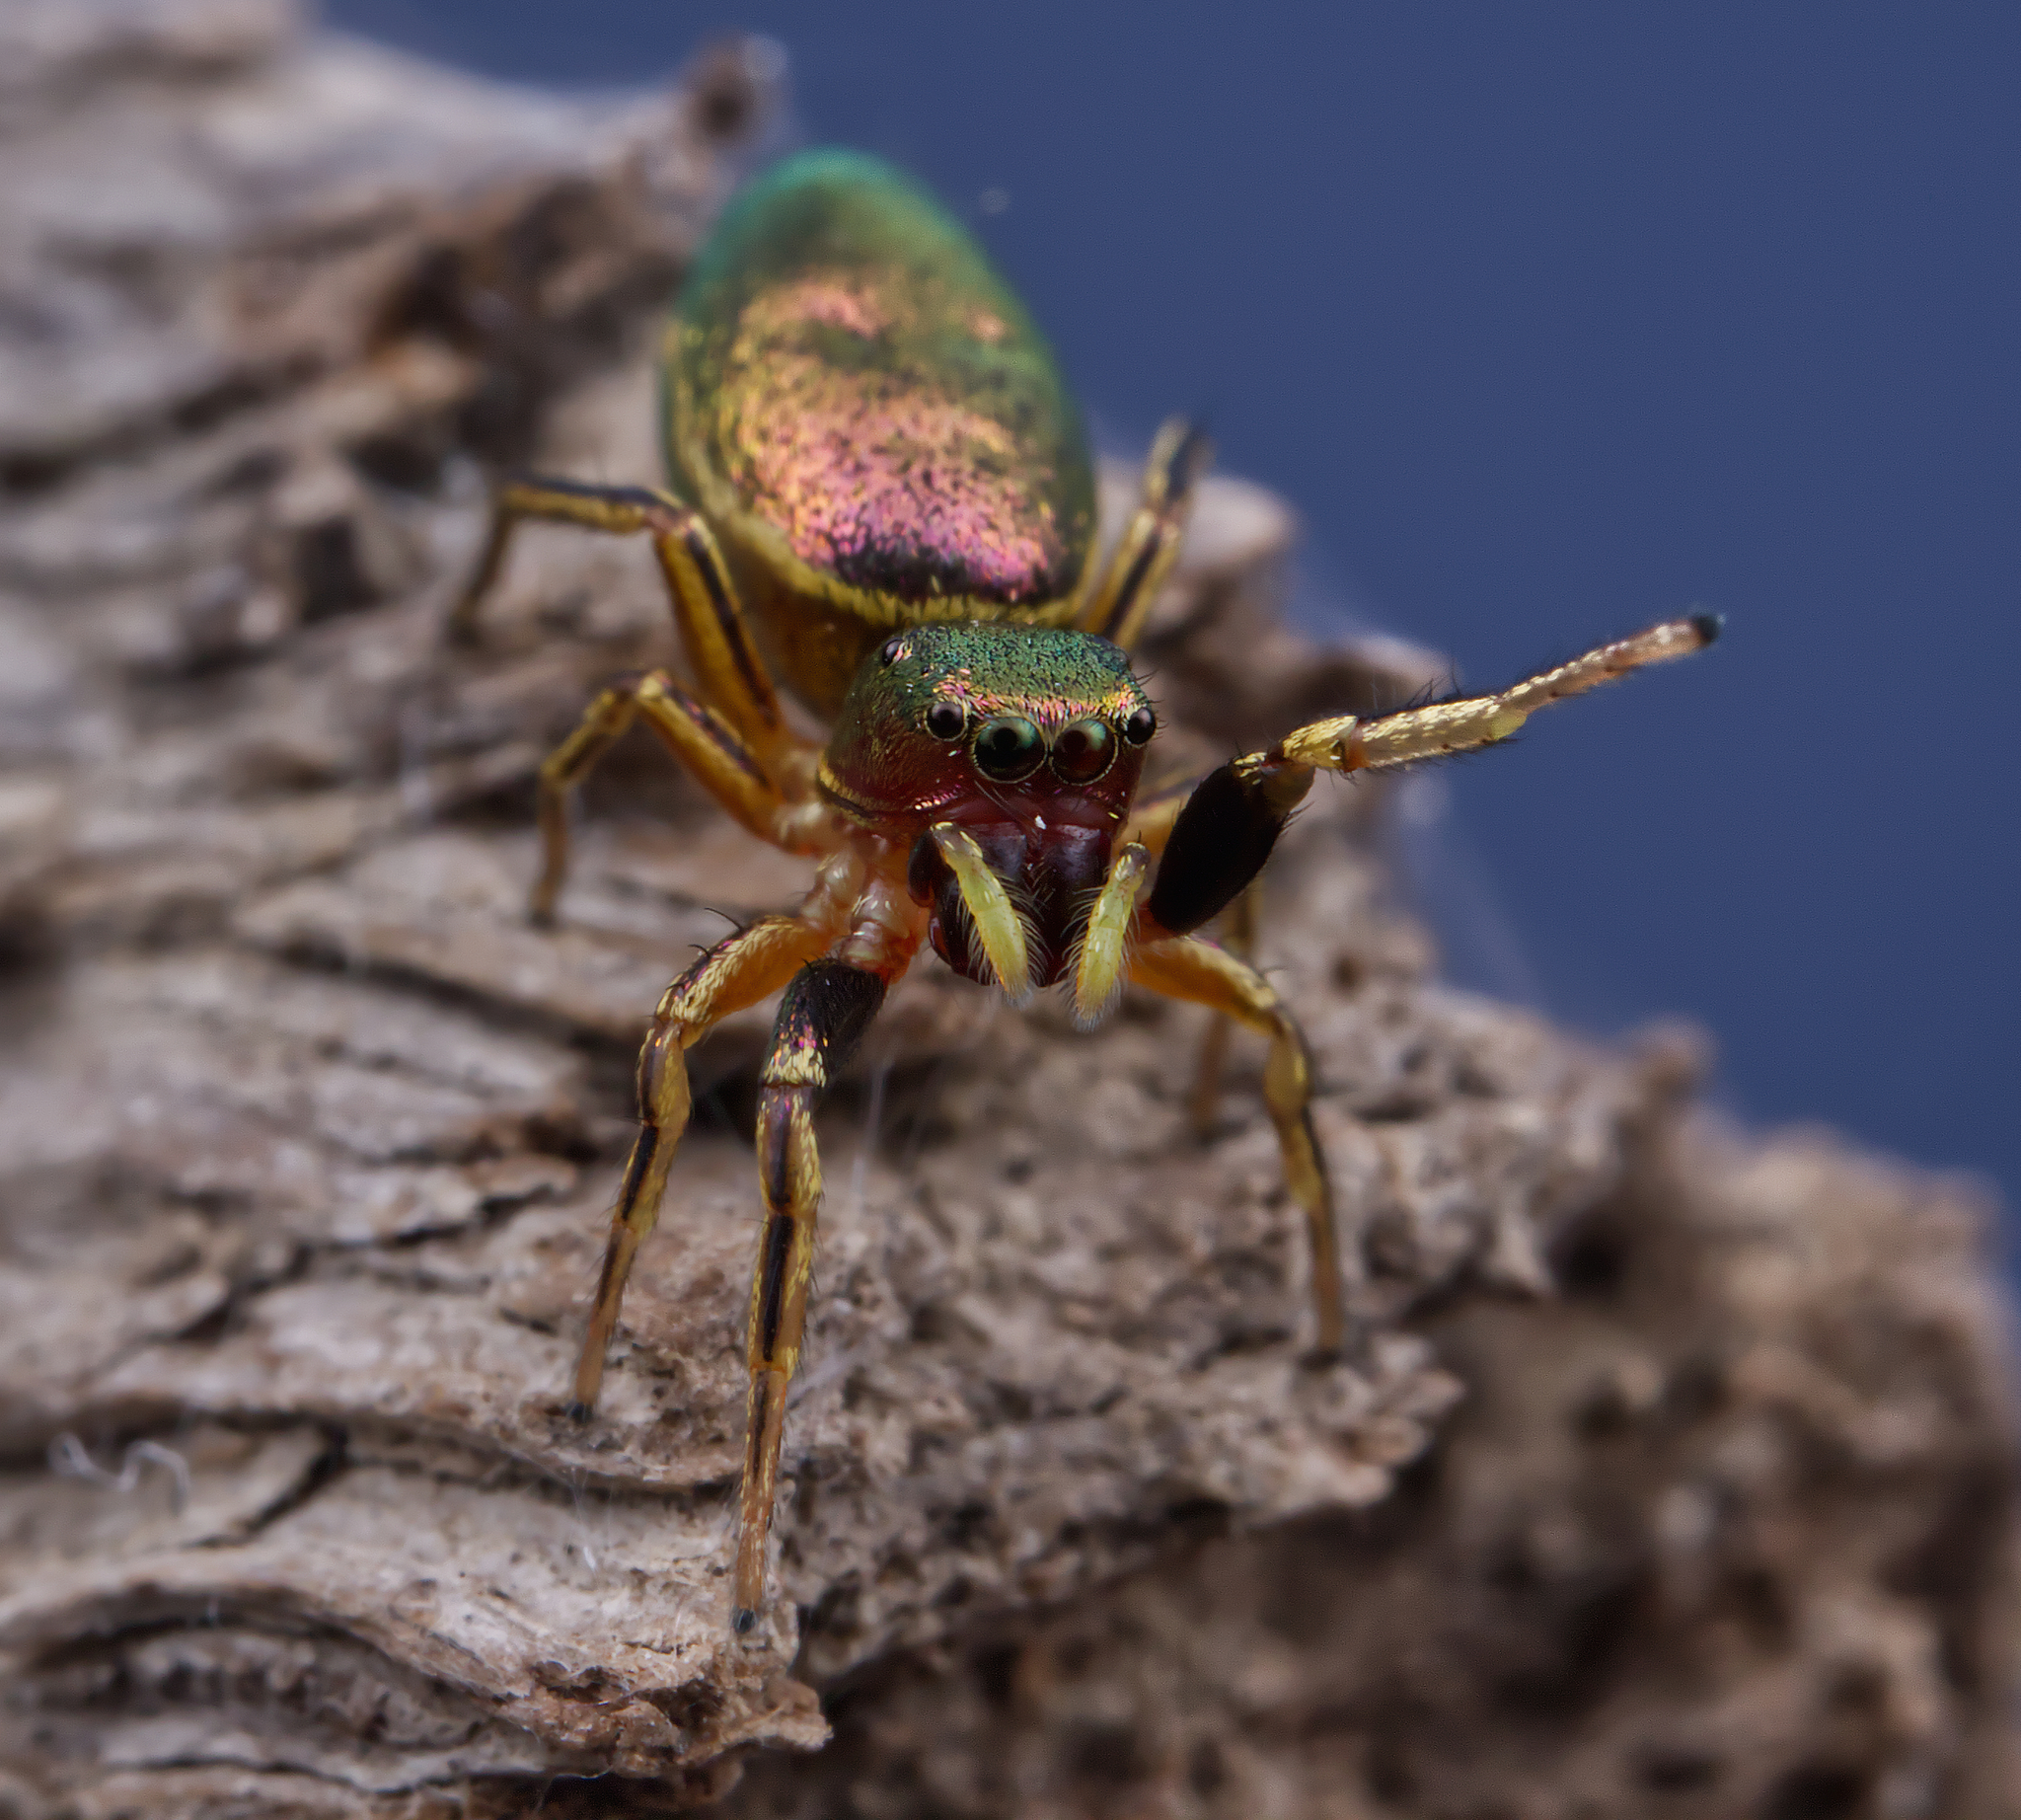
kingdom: Animalia
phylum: Arthropoda
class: Arachnida
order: Araneae
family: Salticidae
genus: Tutelina
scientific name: Tutelina elegans
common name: Thin-spined jumping spider
